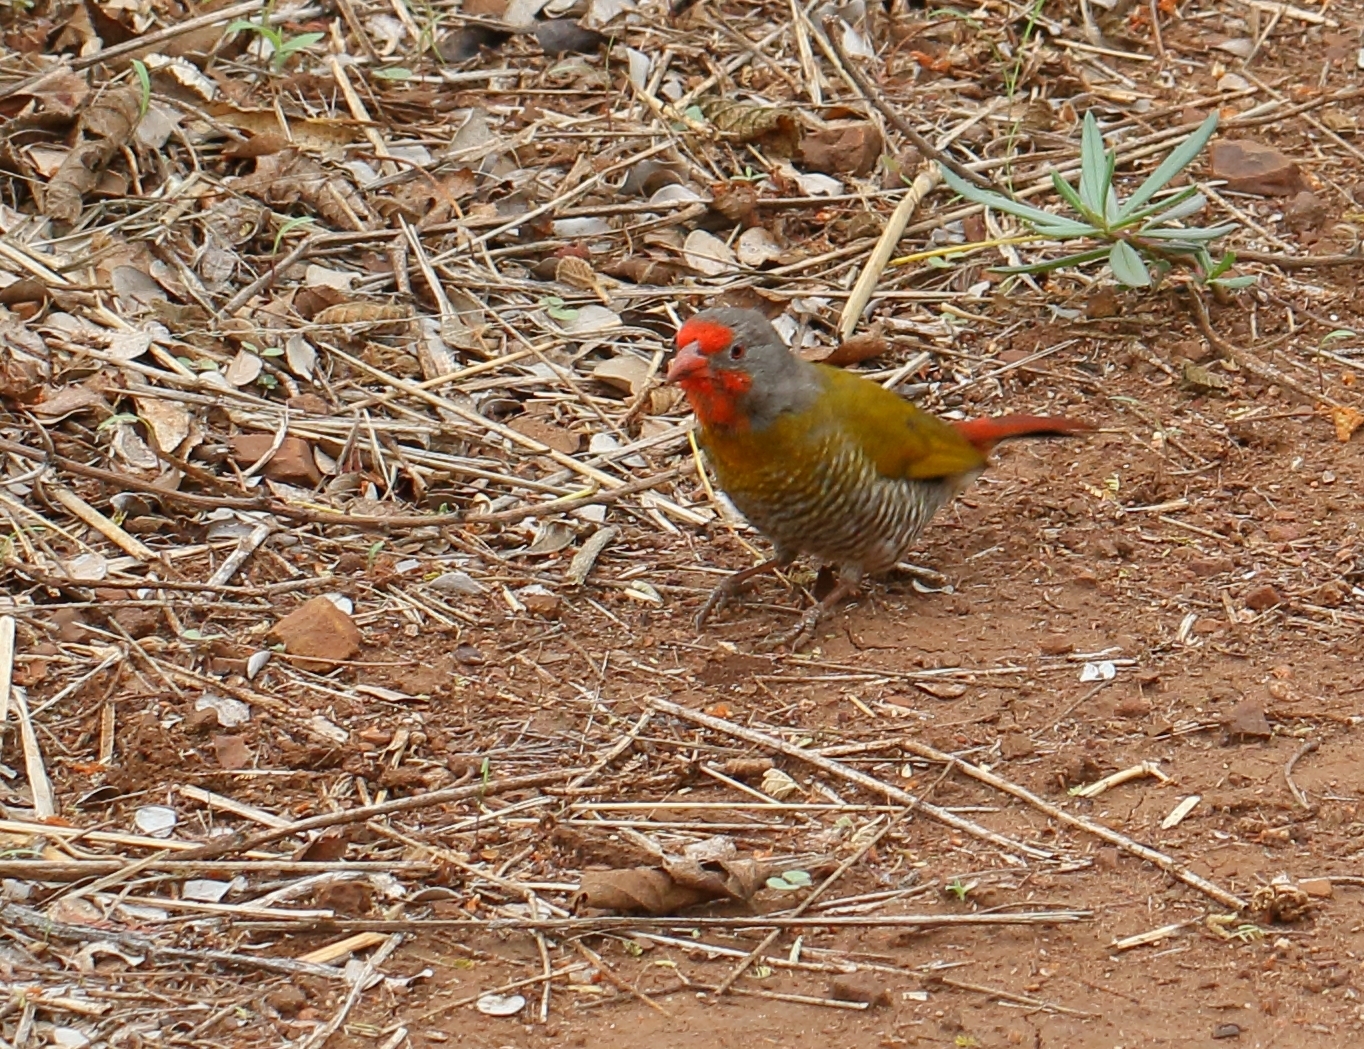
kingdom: Animalia
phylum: Chordata
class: Aves
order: Passeriformes
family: Estrildidae
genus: Pytilia
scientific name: Pytilia melba
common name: Green-winged pytilia
